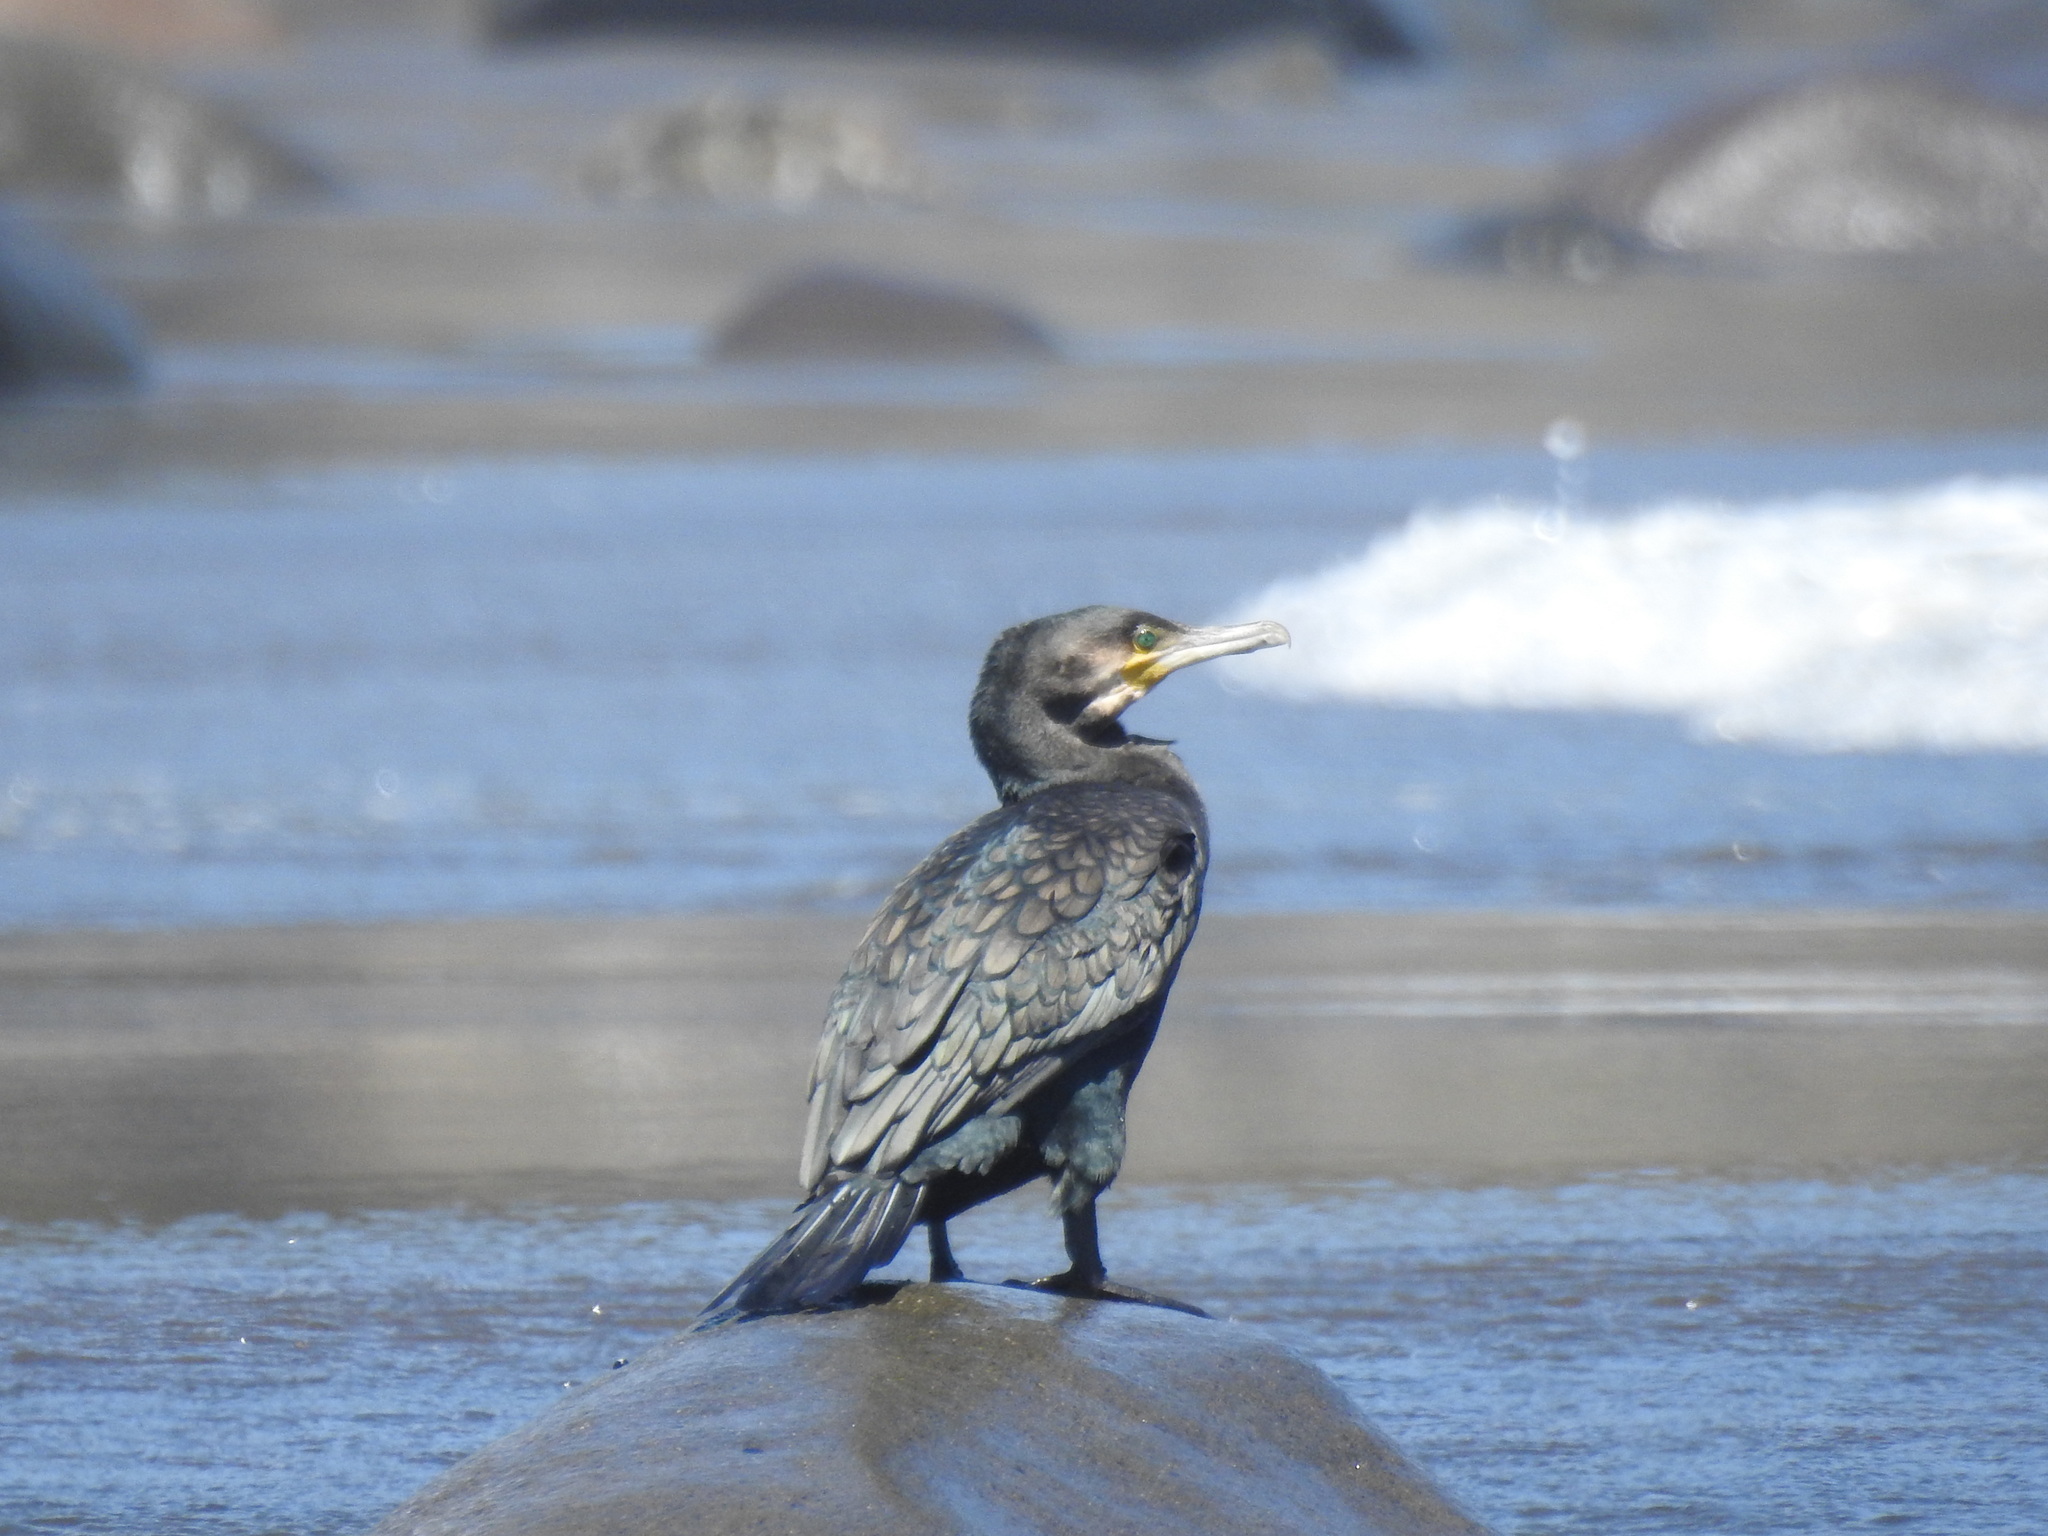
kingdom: Animalia
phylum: Chordata
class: Aves
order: Suliformes
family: Phalacrocoracidae
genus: Phalacrocorax
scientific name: Phalacrocorax carbo
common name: Great cormorant
